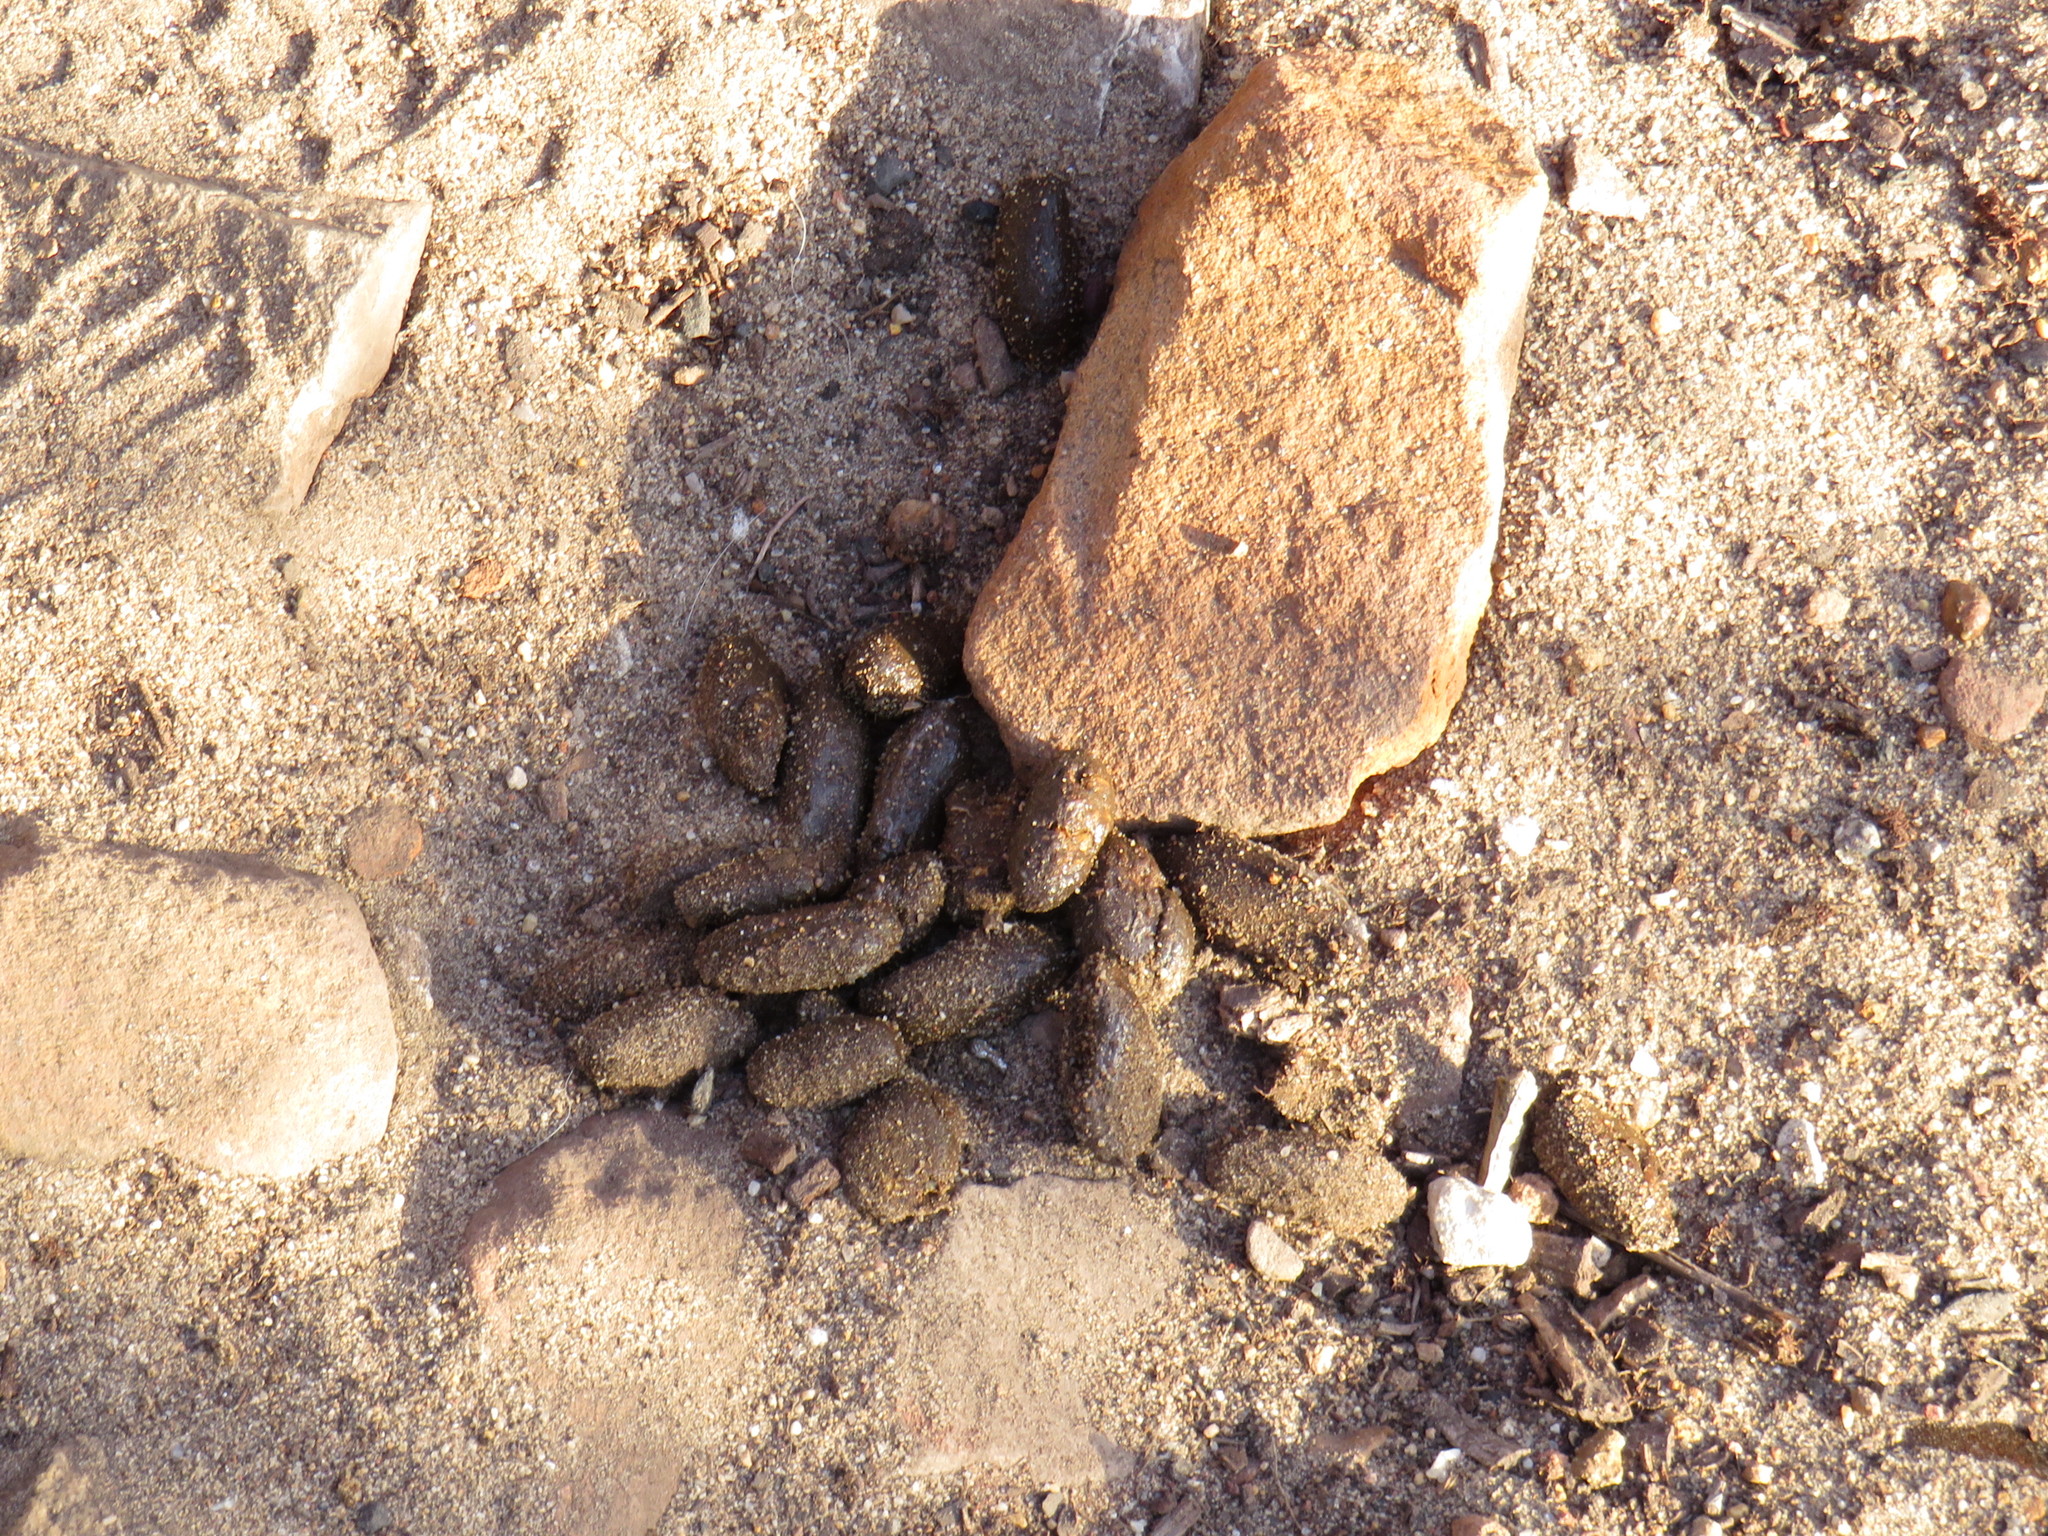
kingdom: Animalia
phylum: Chordata
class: Mammalia
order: Rodentia
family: Hystricidae
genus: Hystrix
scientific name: Hystrix africaeaustralis
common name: Cape porcupine
